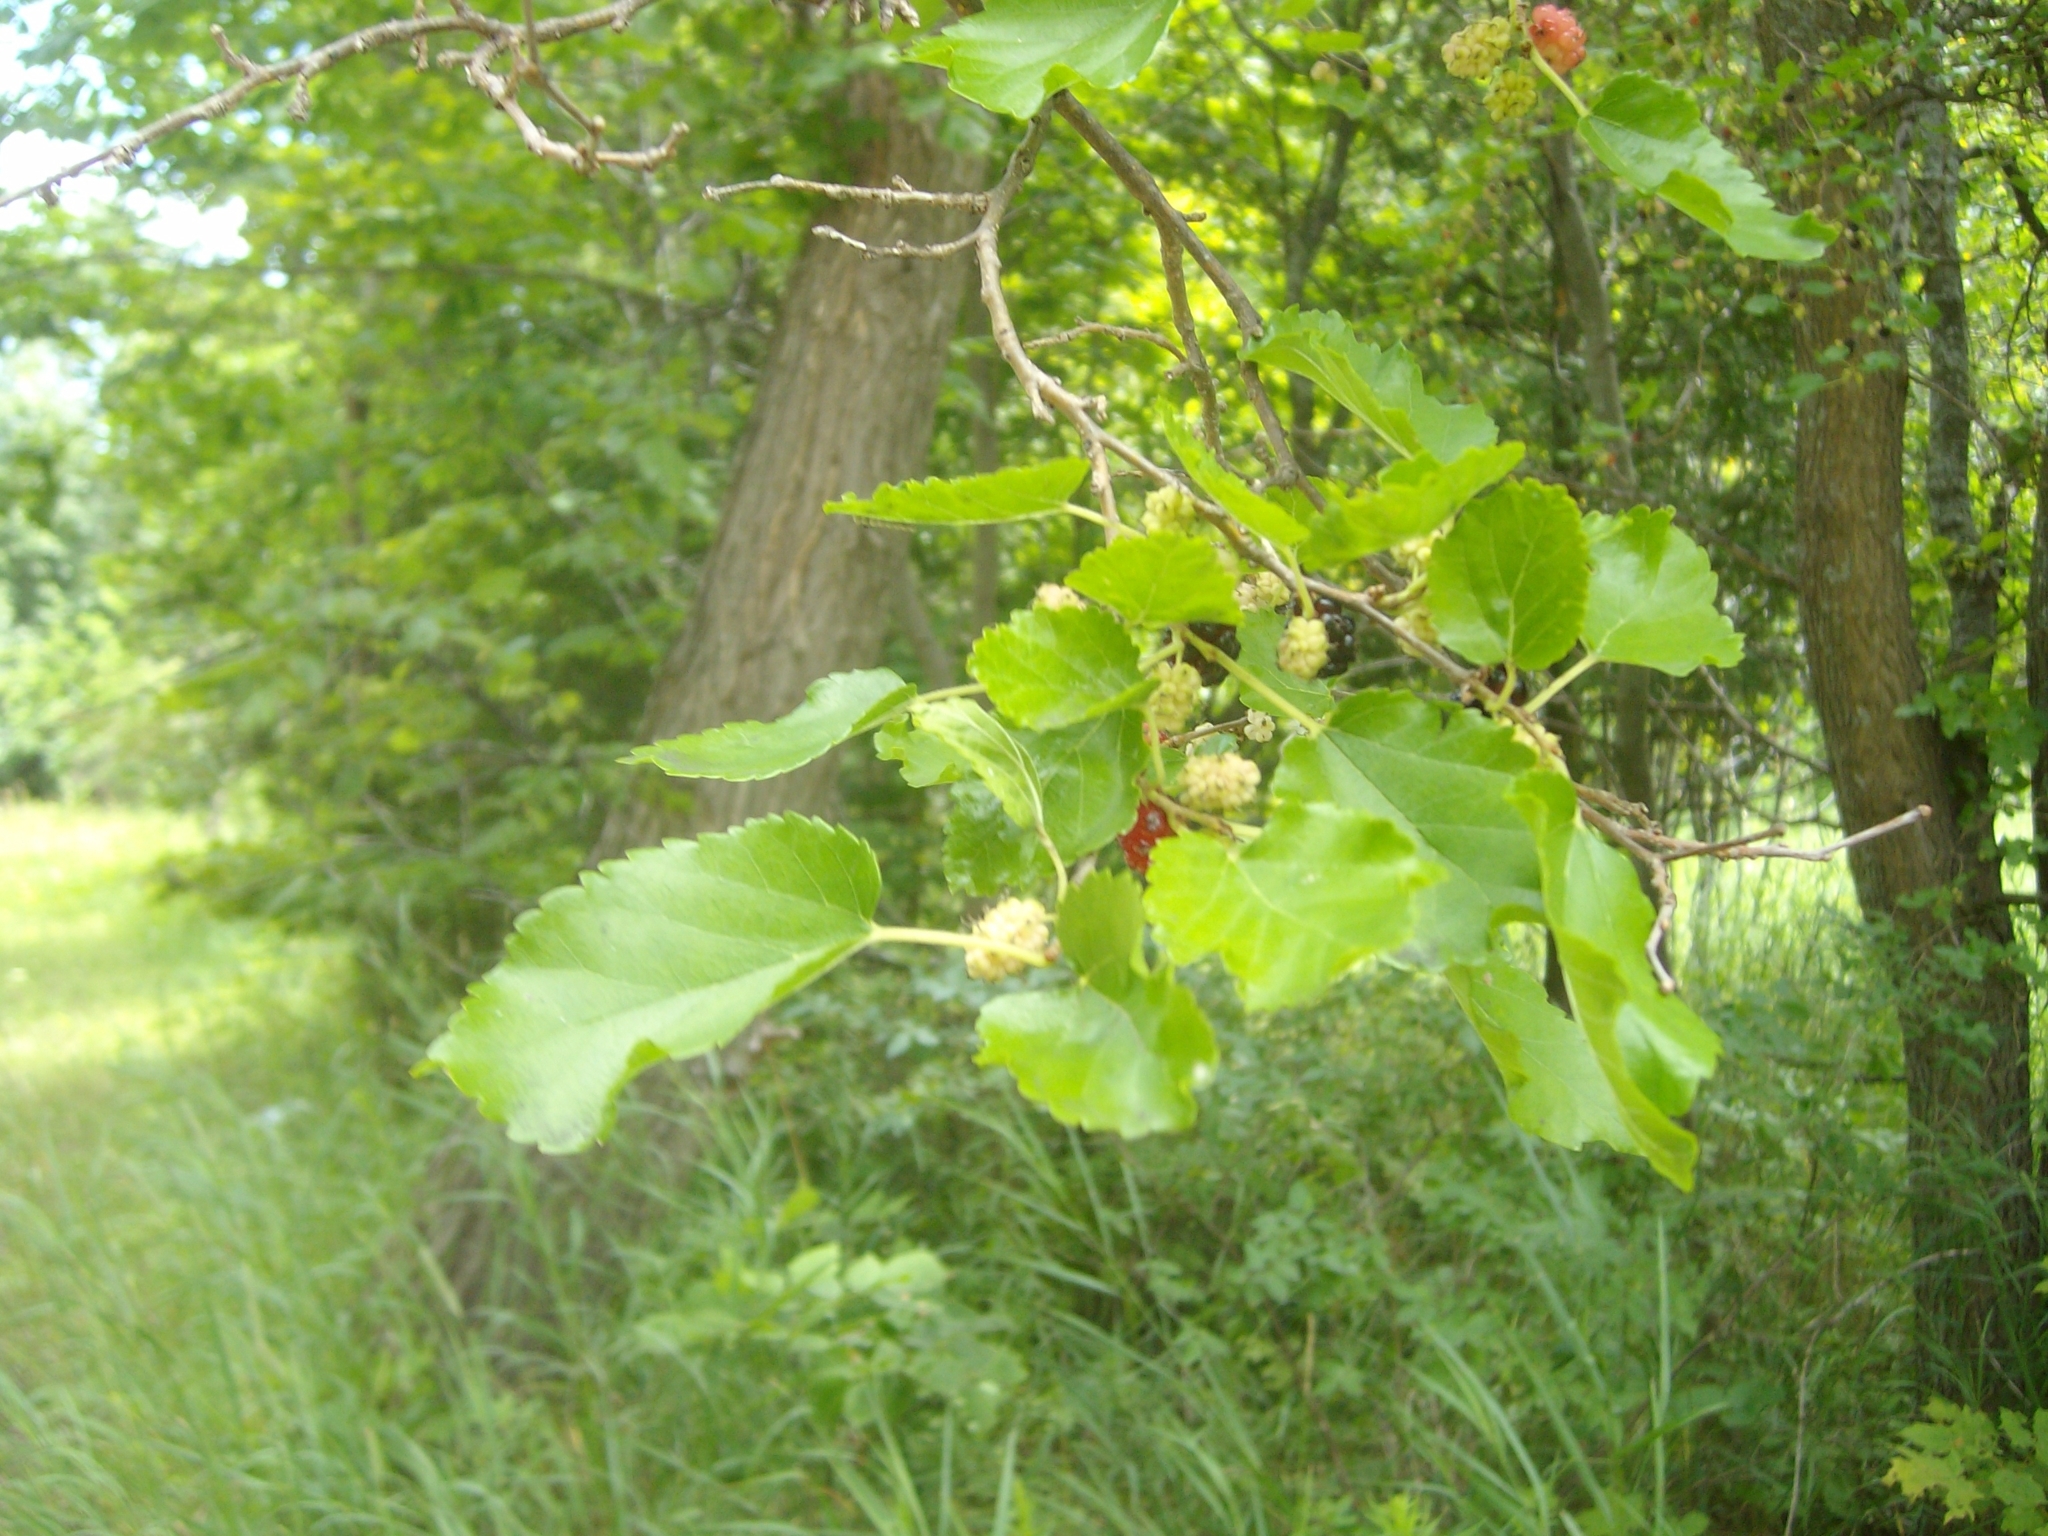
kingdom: Plantae
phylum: Tracheophyta
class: Magnoliopsida
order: Rosales
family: Moraceae
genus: Morus
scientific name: Morus alba
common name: White mulberry
